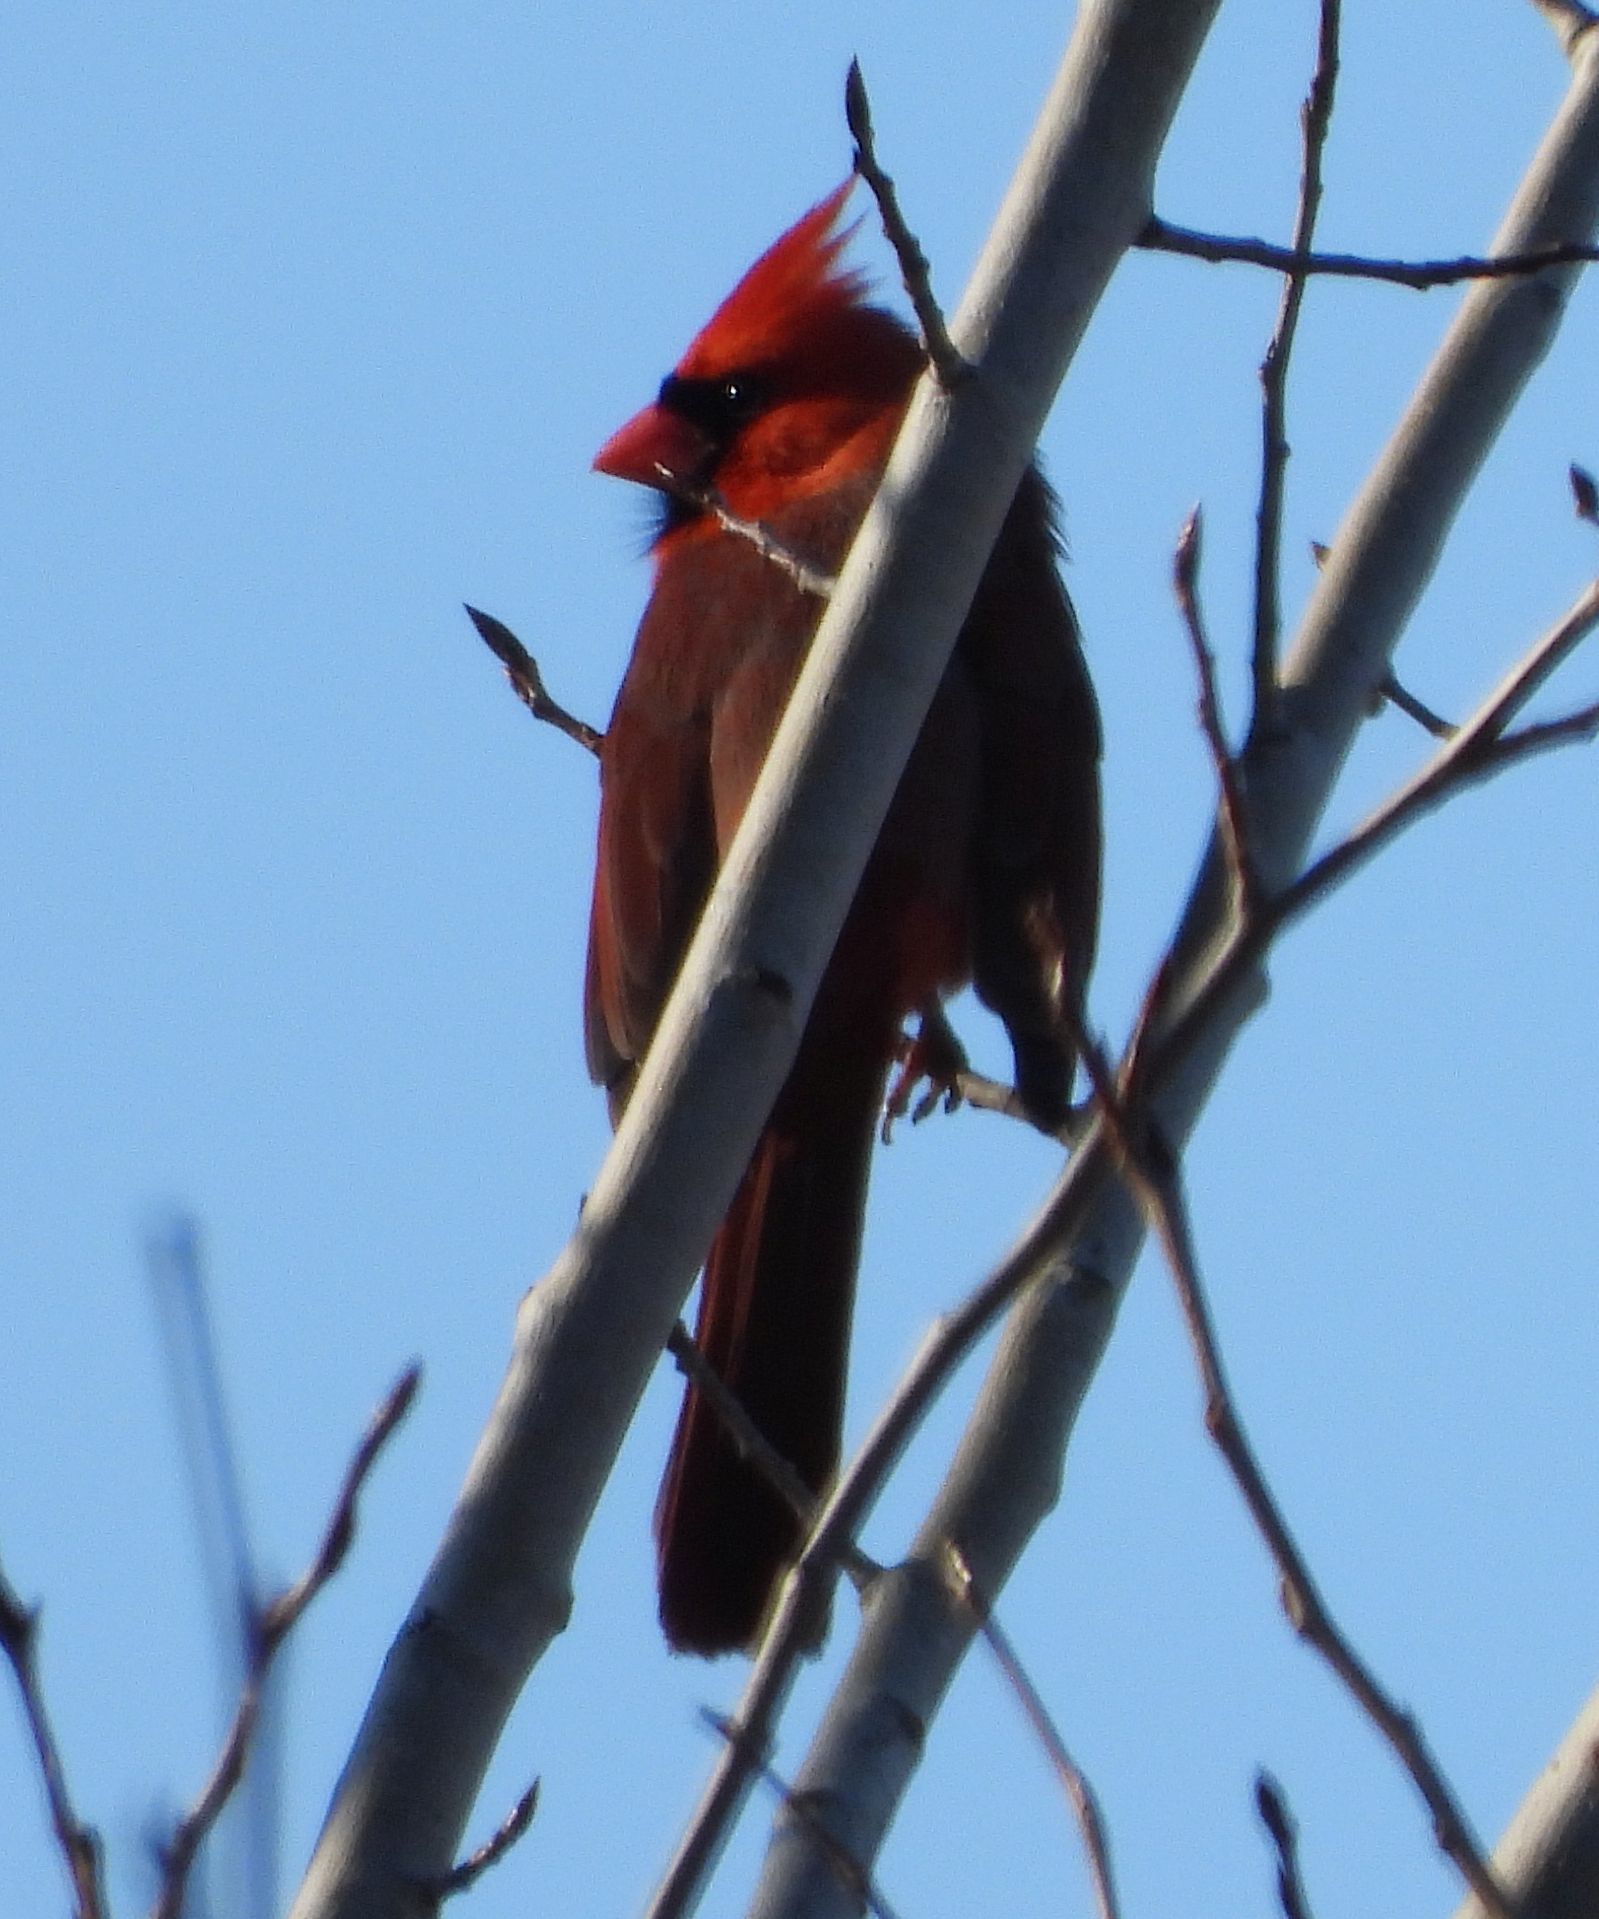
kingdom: Animalia
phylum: Chordata
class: Aves
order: Passeriformes
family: Cardinalidae
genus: Cardinalis
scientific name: Cardinalis cardinalis
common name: Northern cardinal
